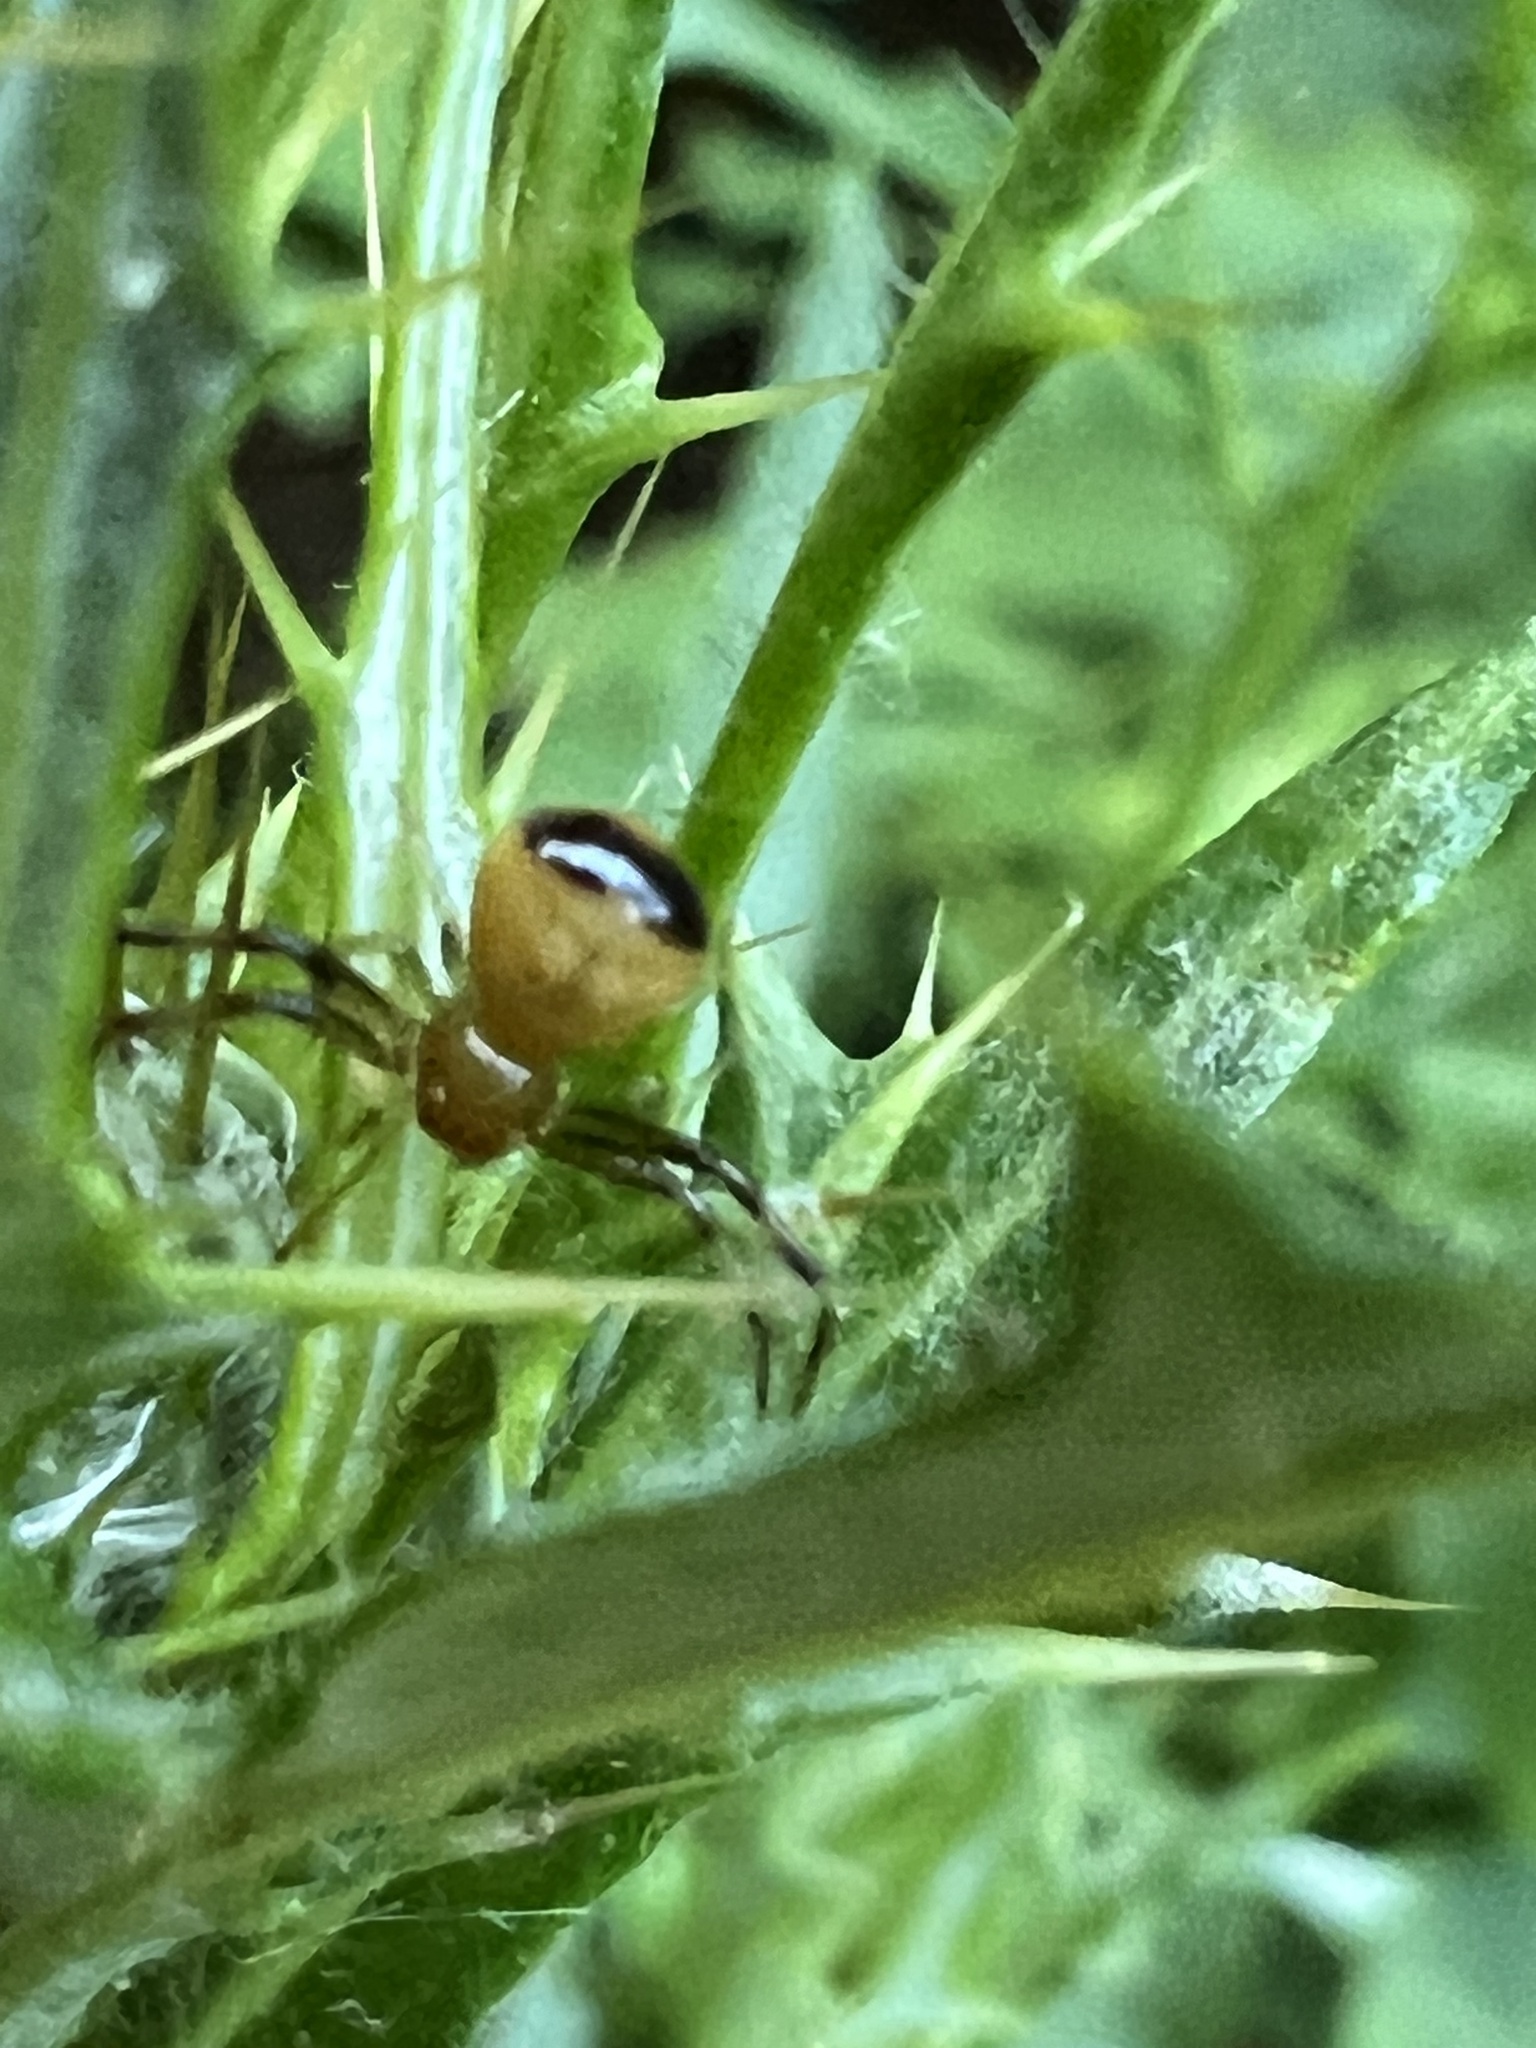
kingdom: Animalia
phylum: Arthropoda
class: Arachnida
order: Araneae
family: Thomisidae
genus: Synema
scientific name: Synema parvulum
